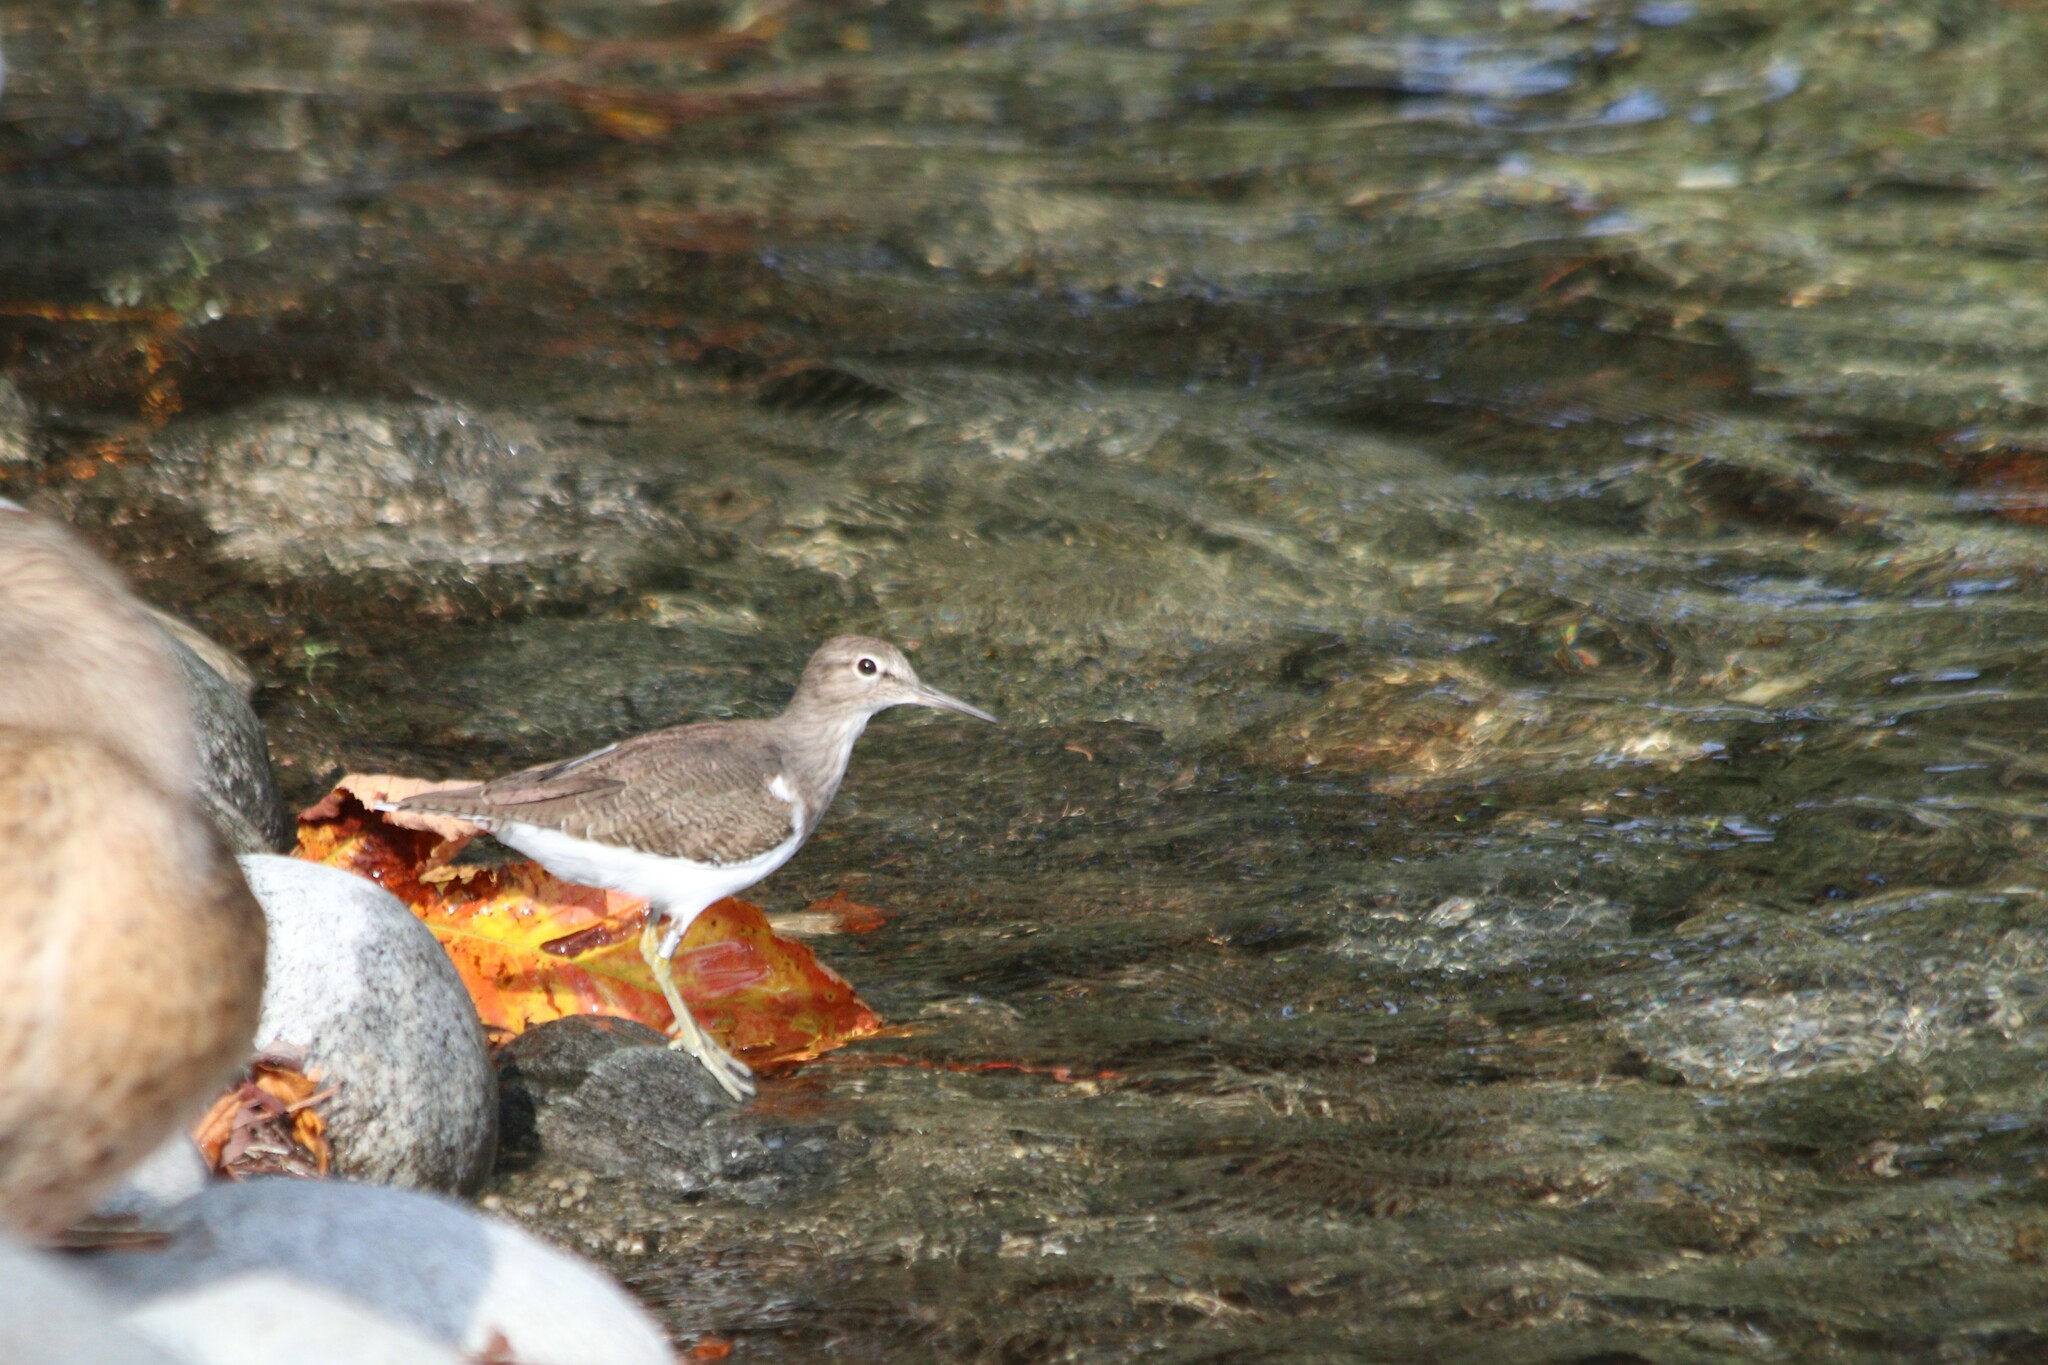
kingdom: Animalia
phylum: Chordata
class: Aves
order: Charadriiformes
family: Scolopacidae
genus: Actitis
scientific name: Actitis hypoleucos
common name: Common sandpiper
